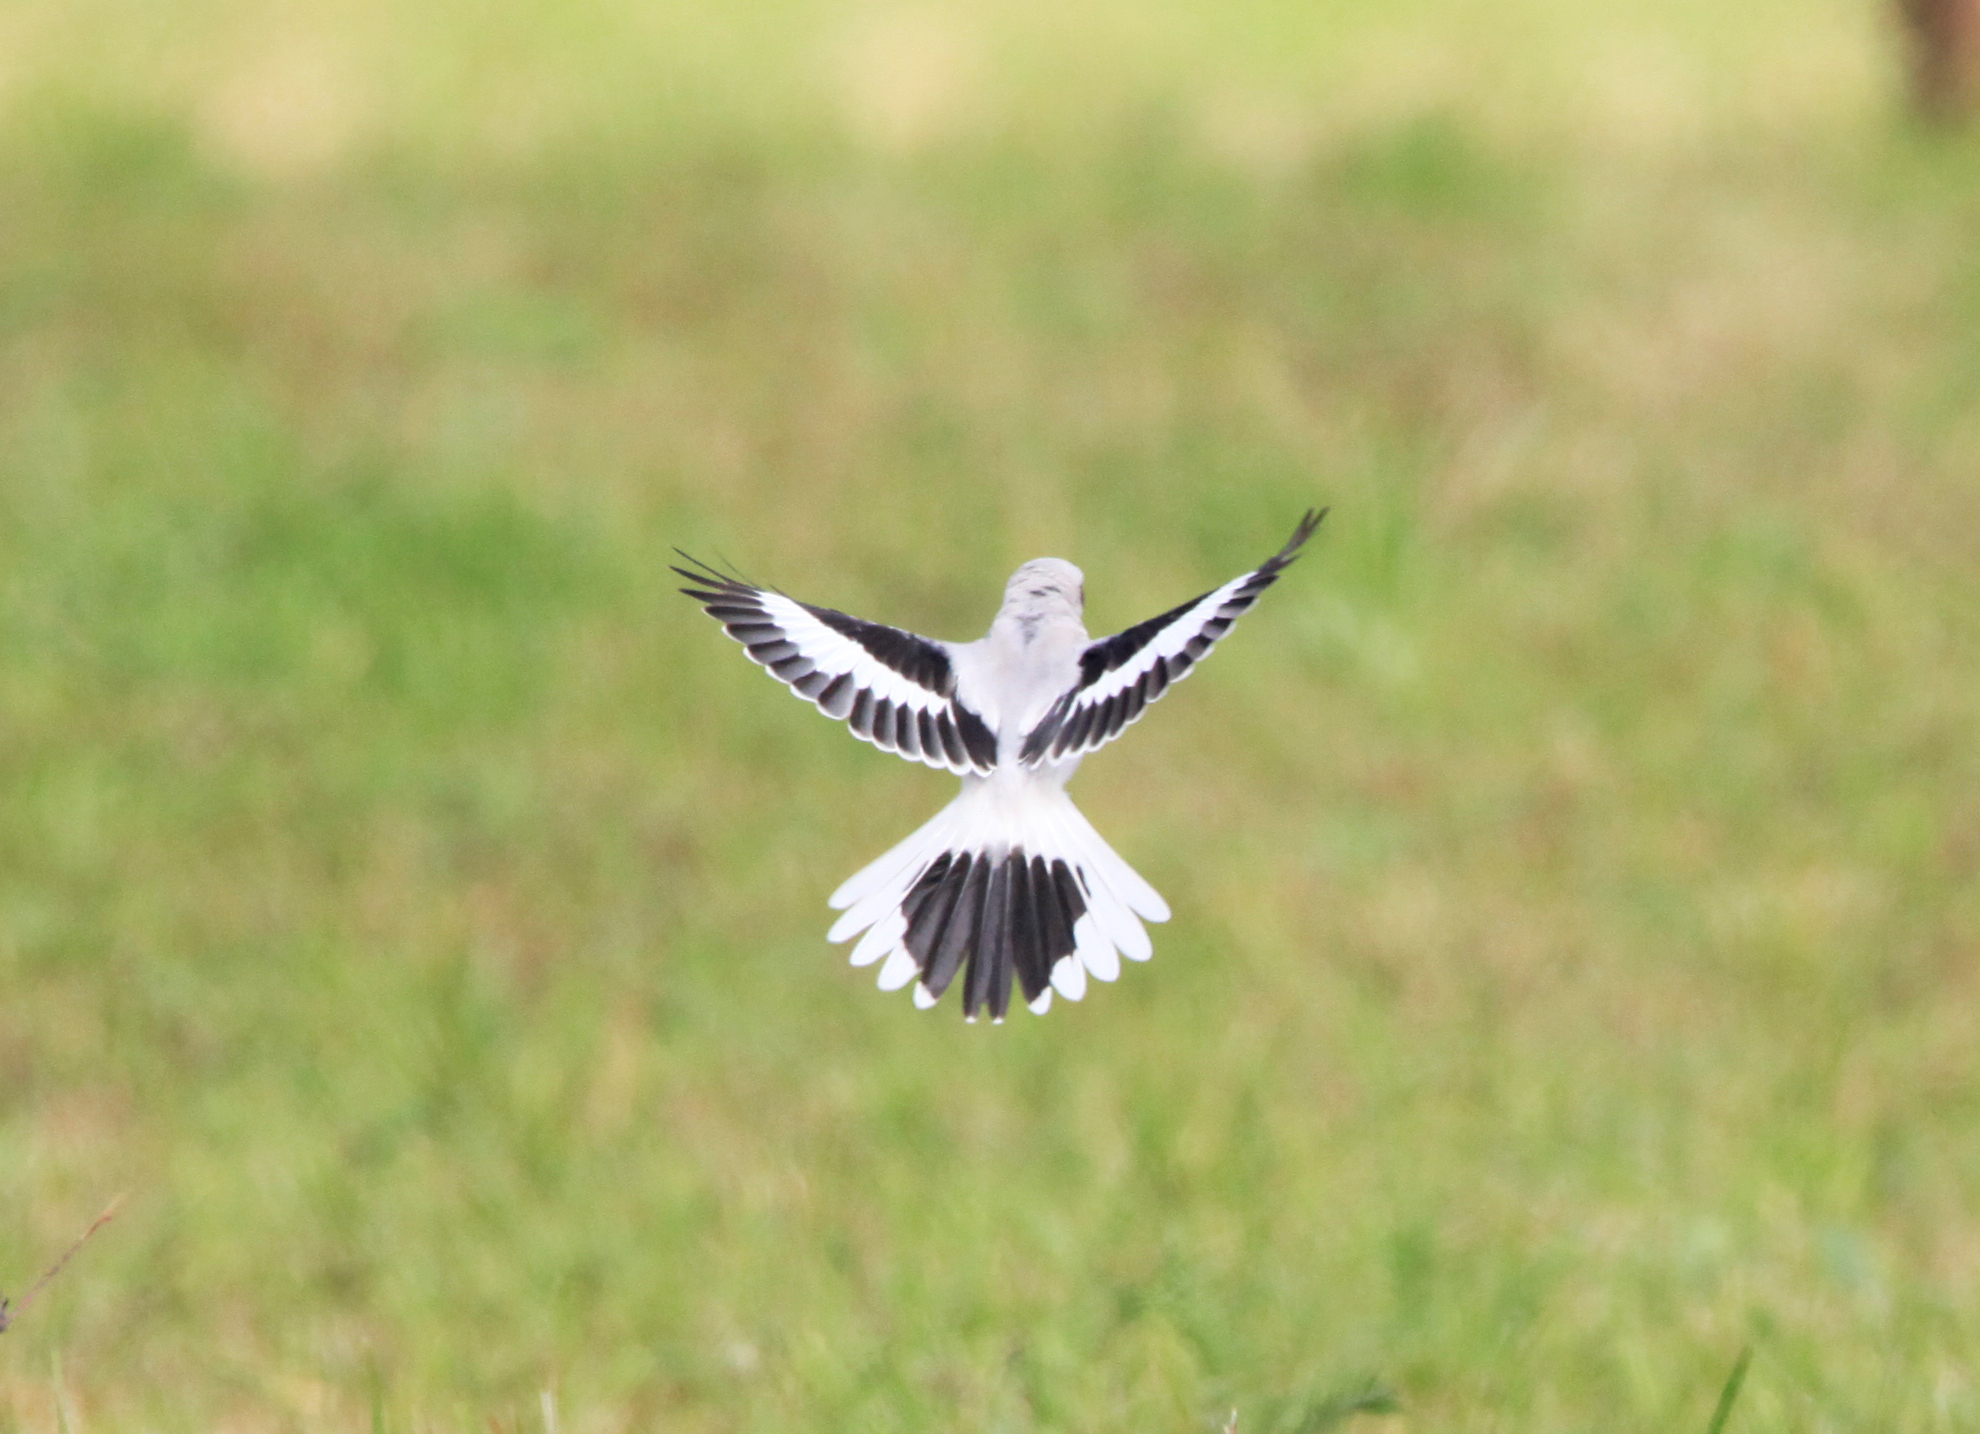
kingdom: Animalia
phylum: Chordata
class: Aves
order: Passeriformes
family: Laniidae
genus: Lanius
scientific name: Lanius excubitor
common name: Great grey shrike
